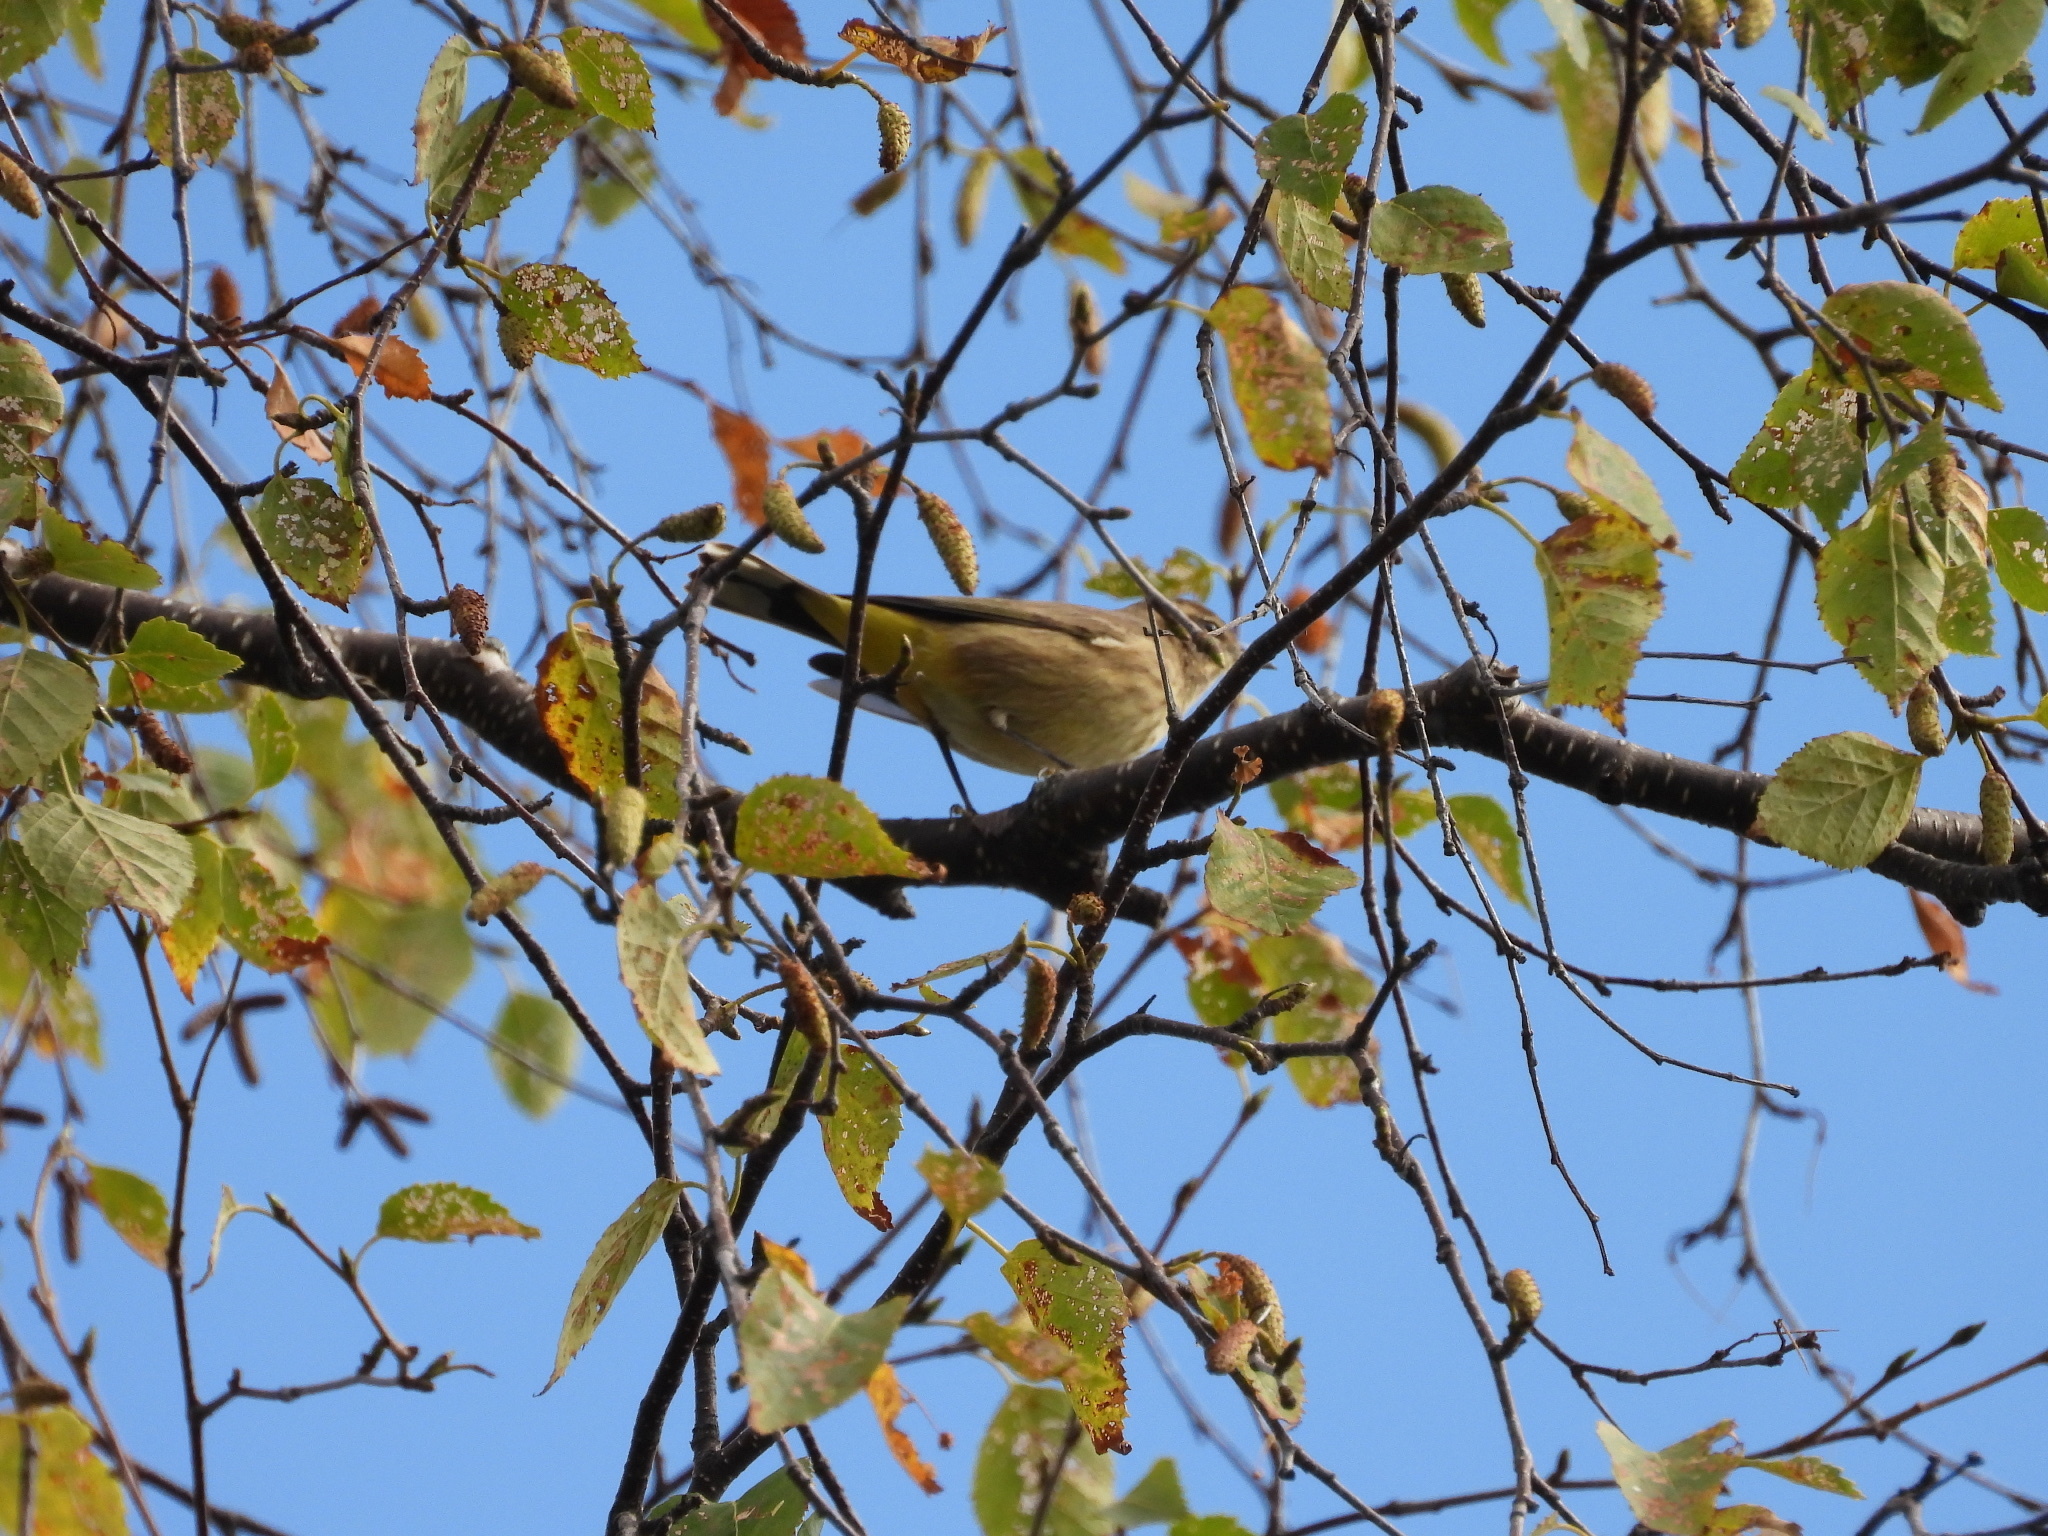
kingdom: Animalia
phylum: Chordata
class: Aves
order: Passeriformes
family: Parulidae
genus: Setophaga
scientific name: Setophaga palmarum
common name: Palm warbler
